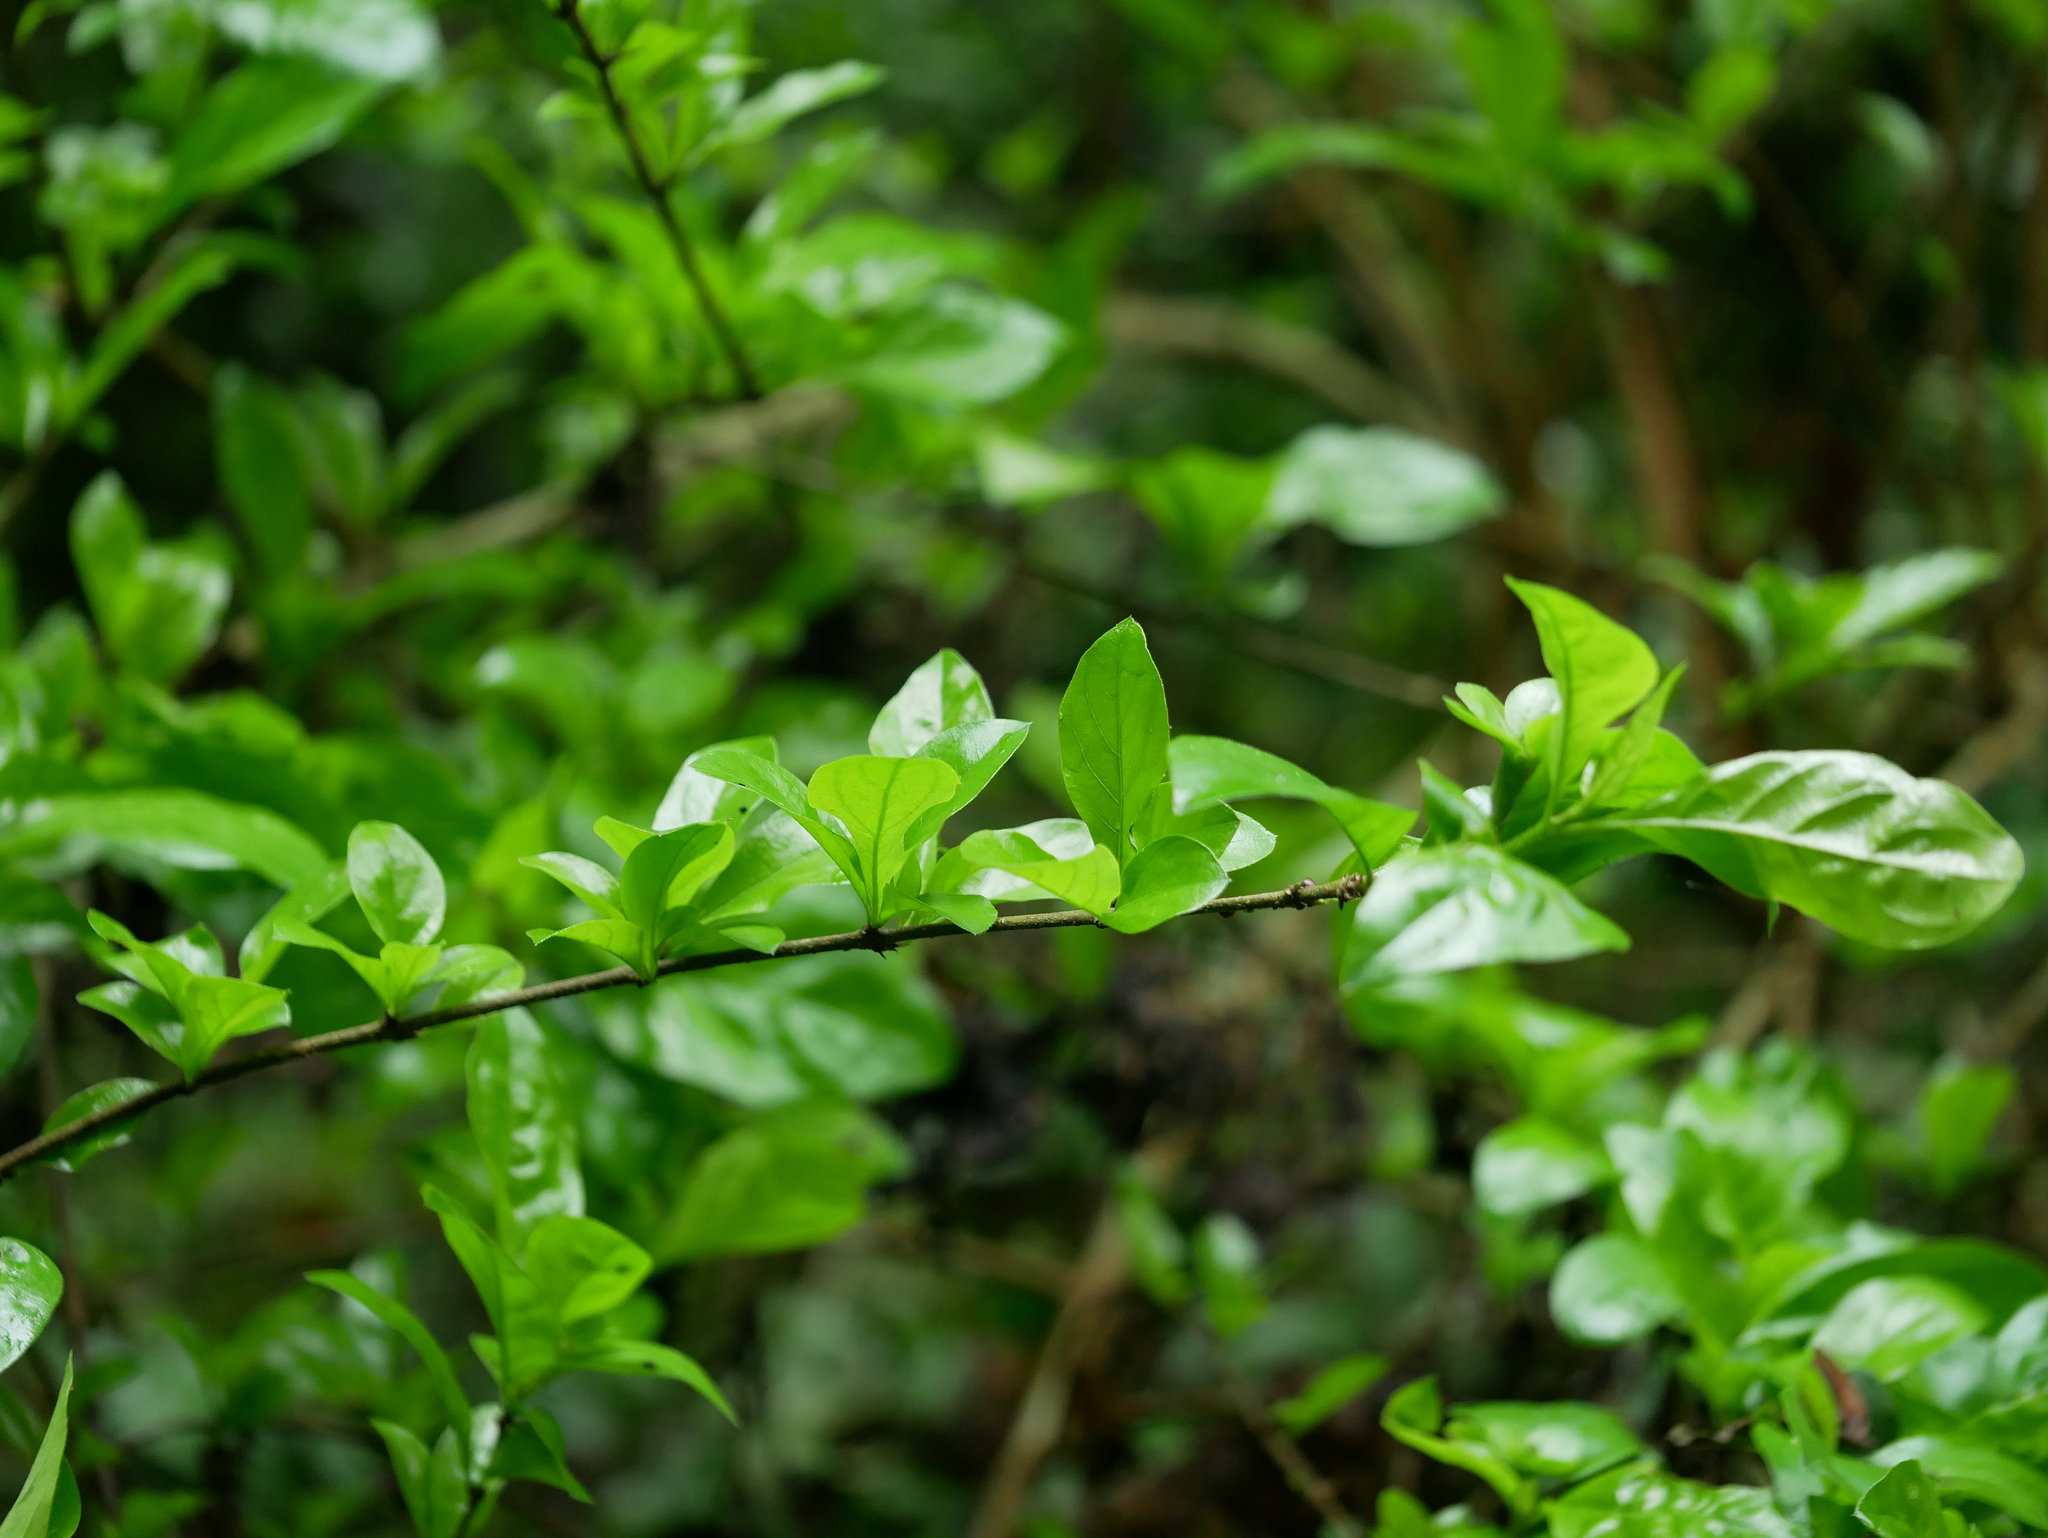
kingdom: Plantae
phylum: Tracheophyta
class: Magnoliopsida
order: Gentianales
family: Rubiaceae
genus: Randia
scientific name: Randia aculeata
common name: Inkberry
